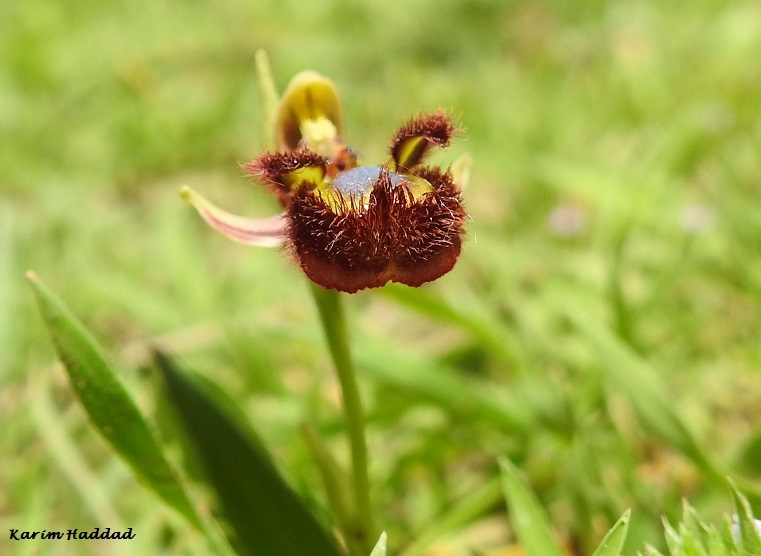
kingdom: Plantae
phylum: Tracheophyta
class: Liliopsida
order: Asparagales
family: Orchidaceae
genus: Ophrys
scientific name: Ophrys speculum
